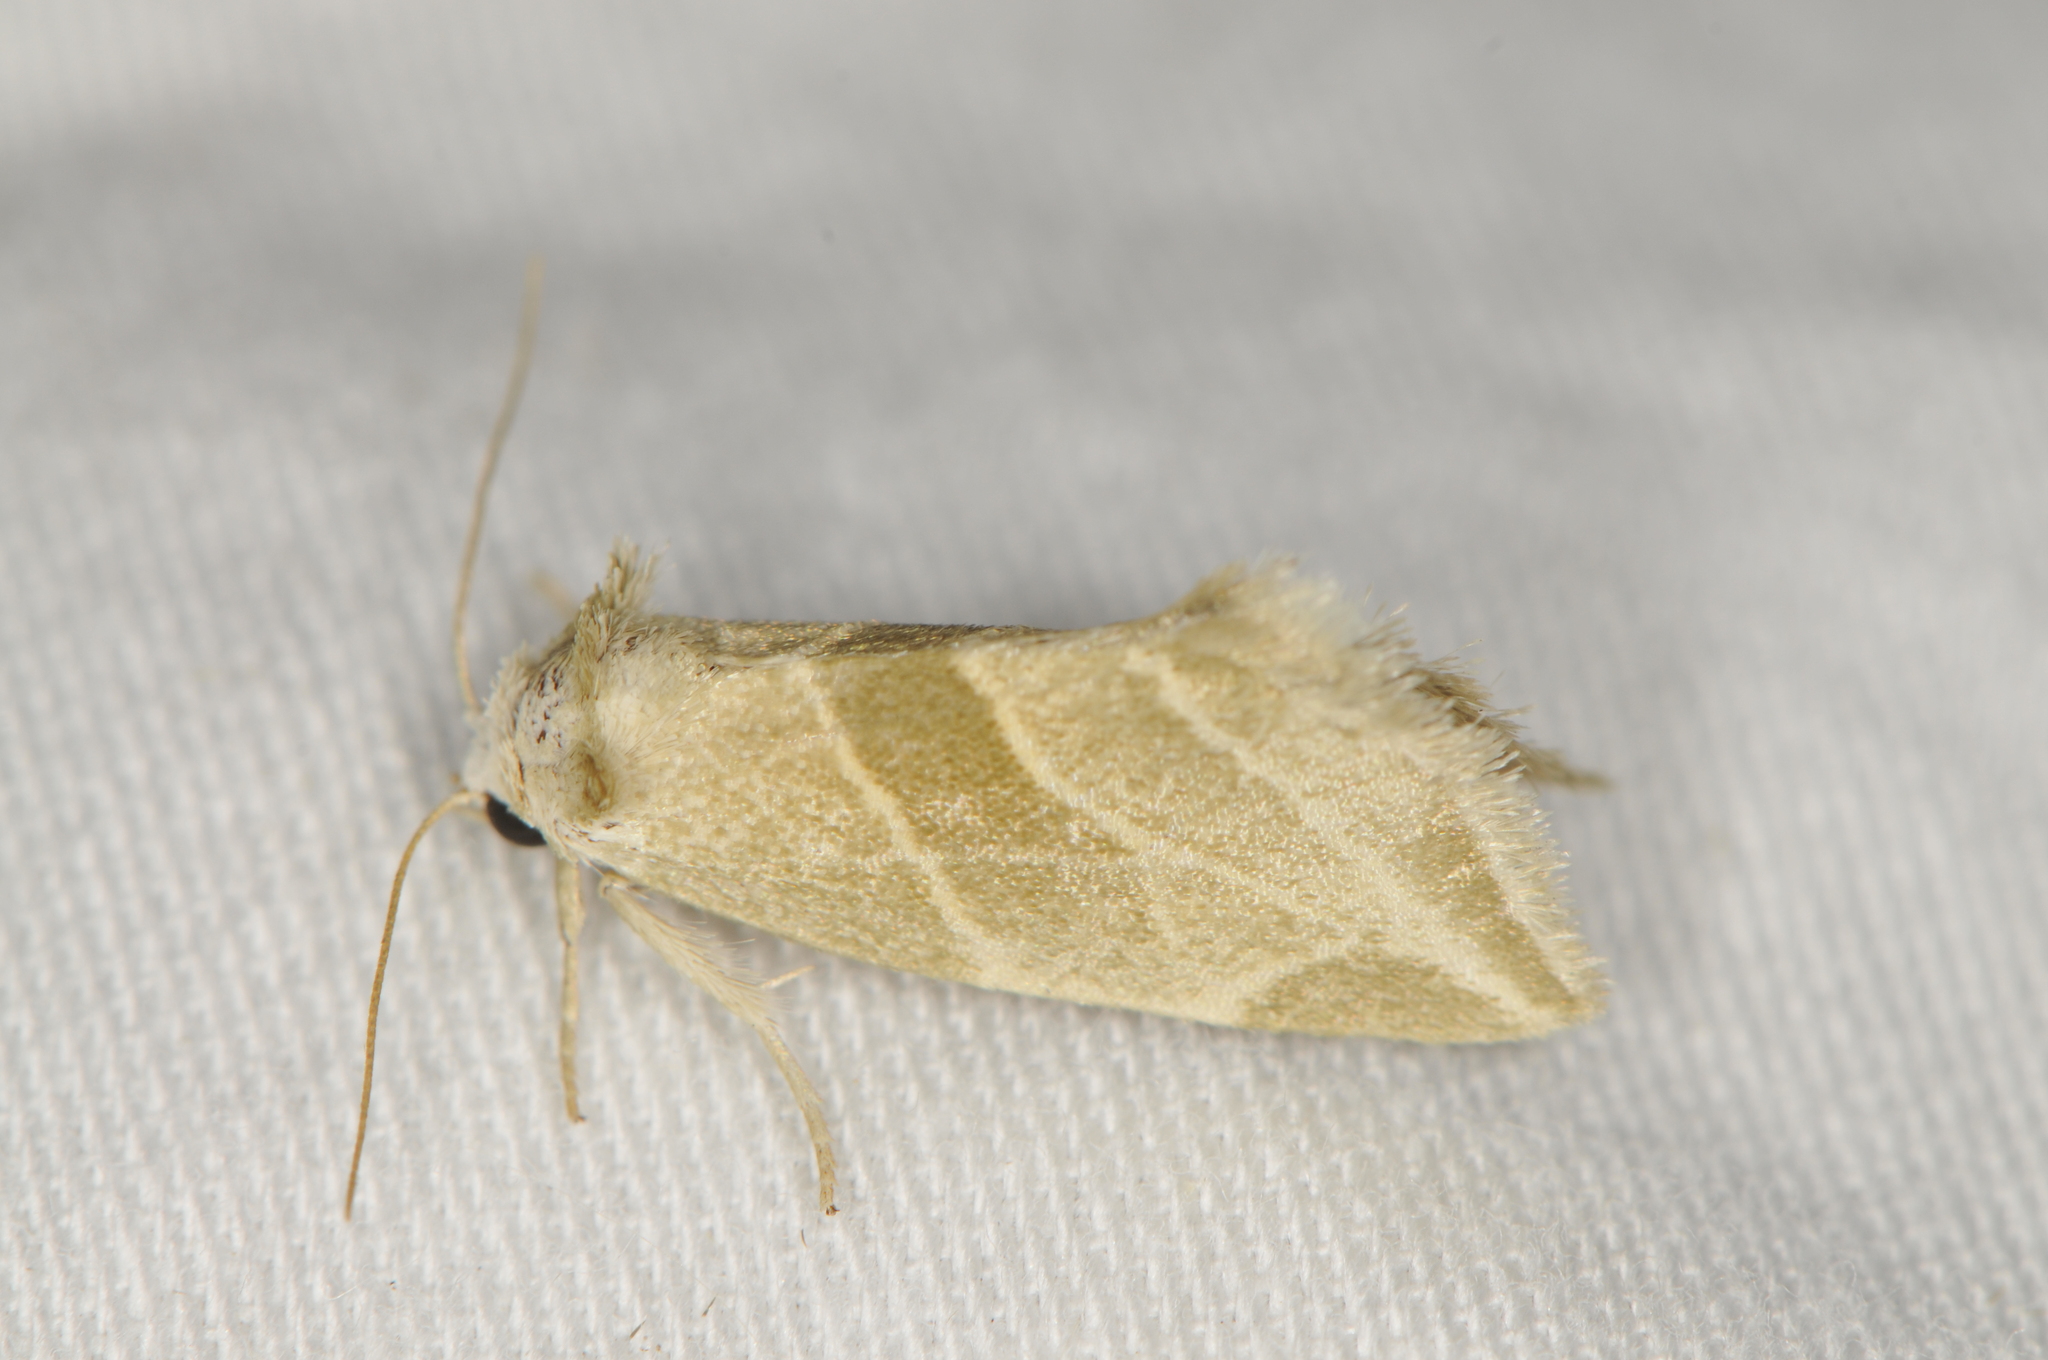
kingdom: Animalia
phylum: Arthropoda
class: Insecta
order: Lepidoptera
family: Noctuidae
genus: Plagiomimicus
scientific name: Plagiomimicus mimica
